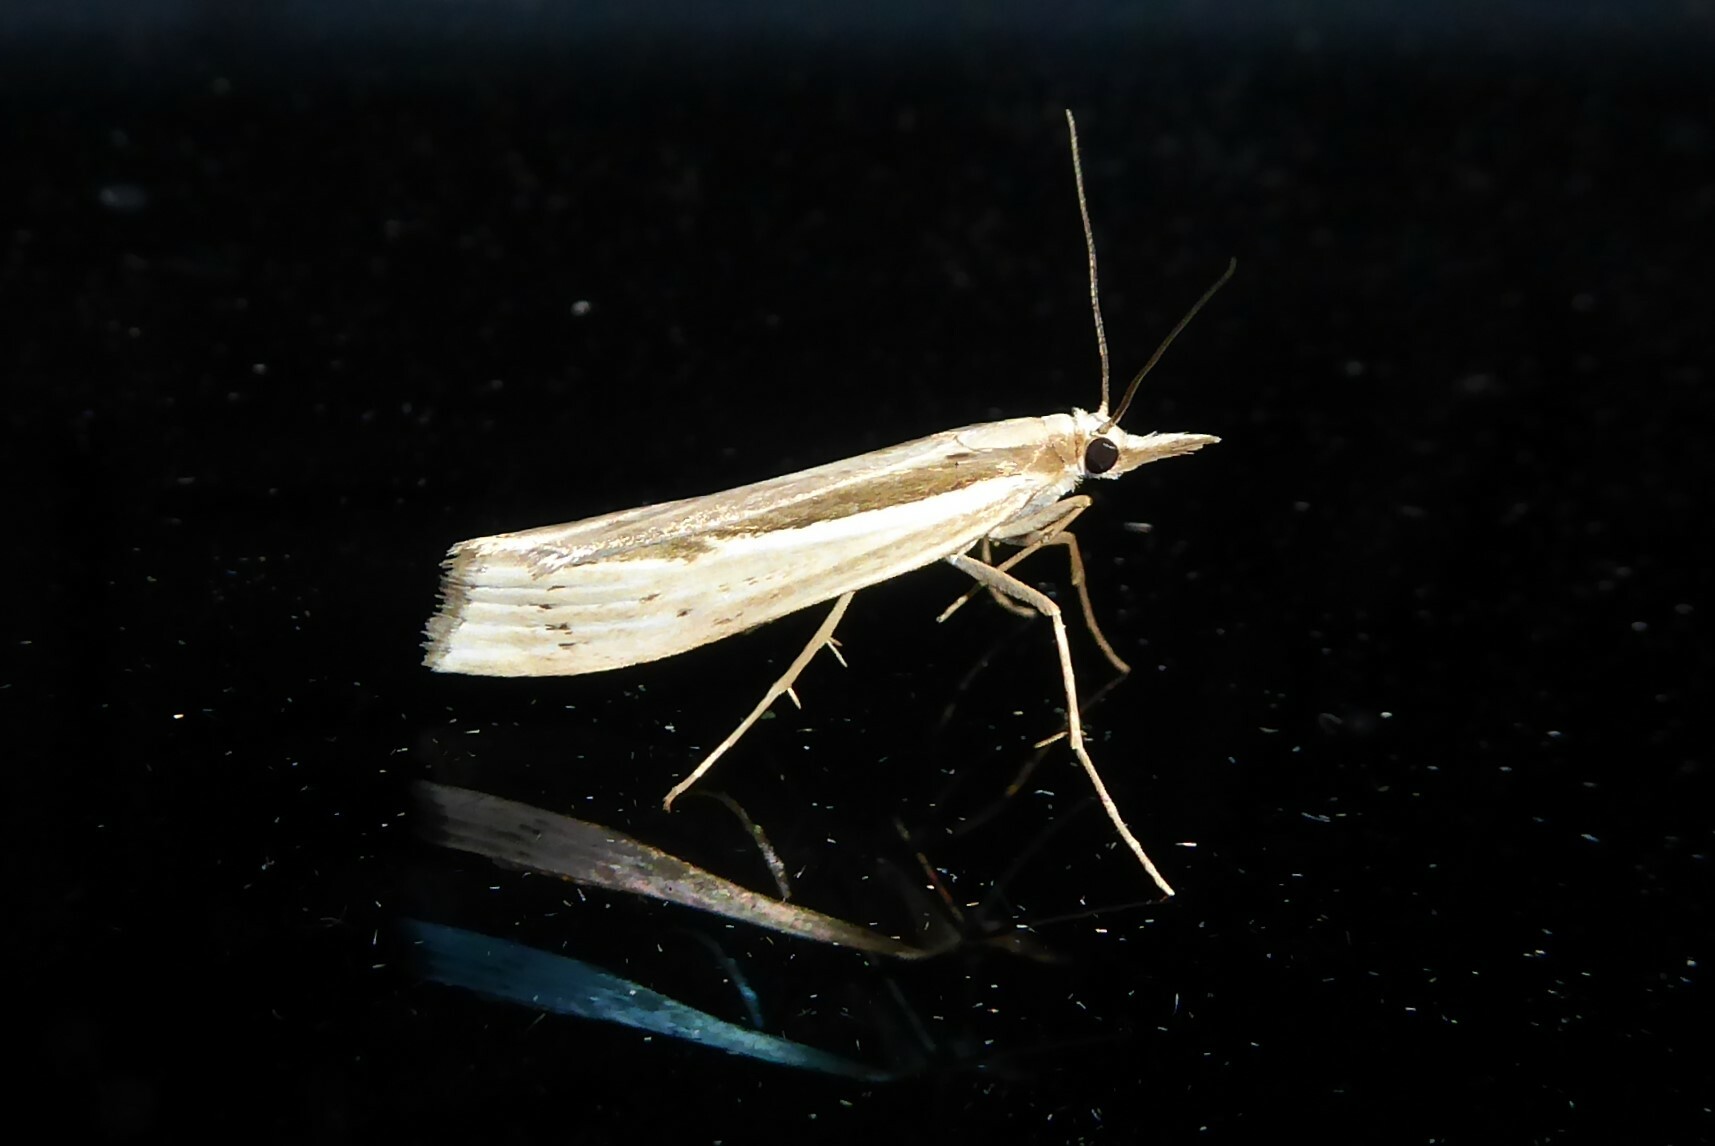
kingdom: Animalia
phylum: Arthropoda
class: Insecta
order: Lepidoptera
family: Crambidae
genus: Orocrambus
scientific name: Orocrambus ramosellus
